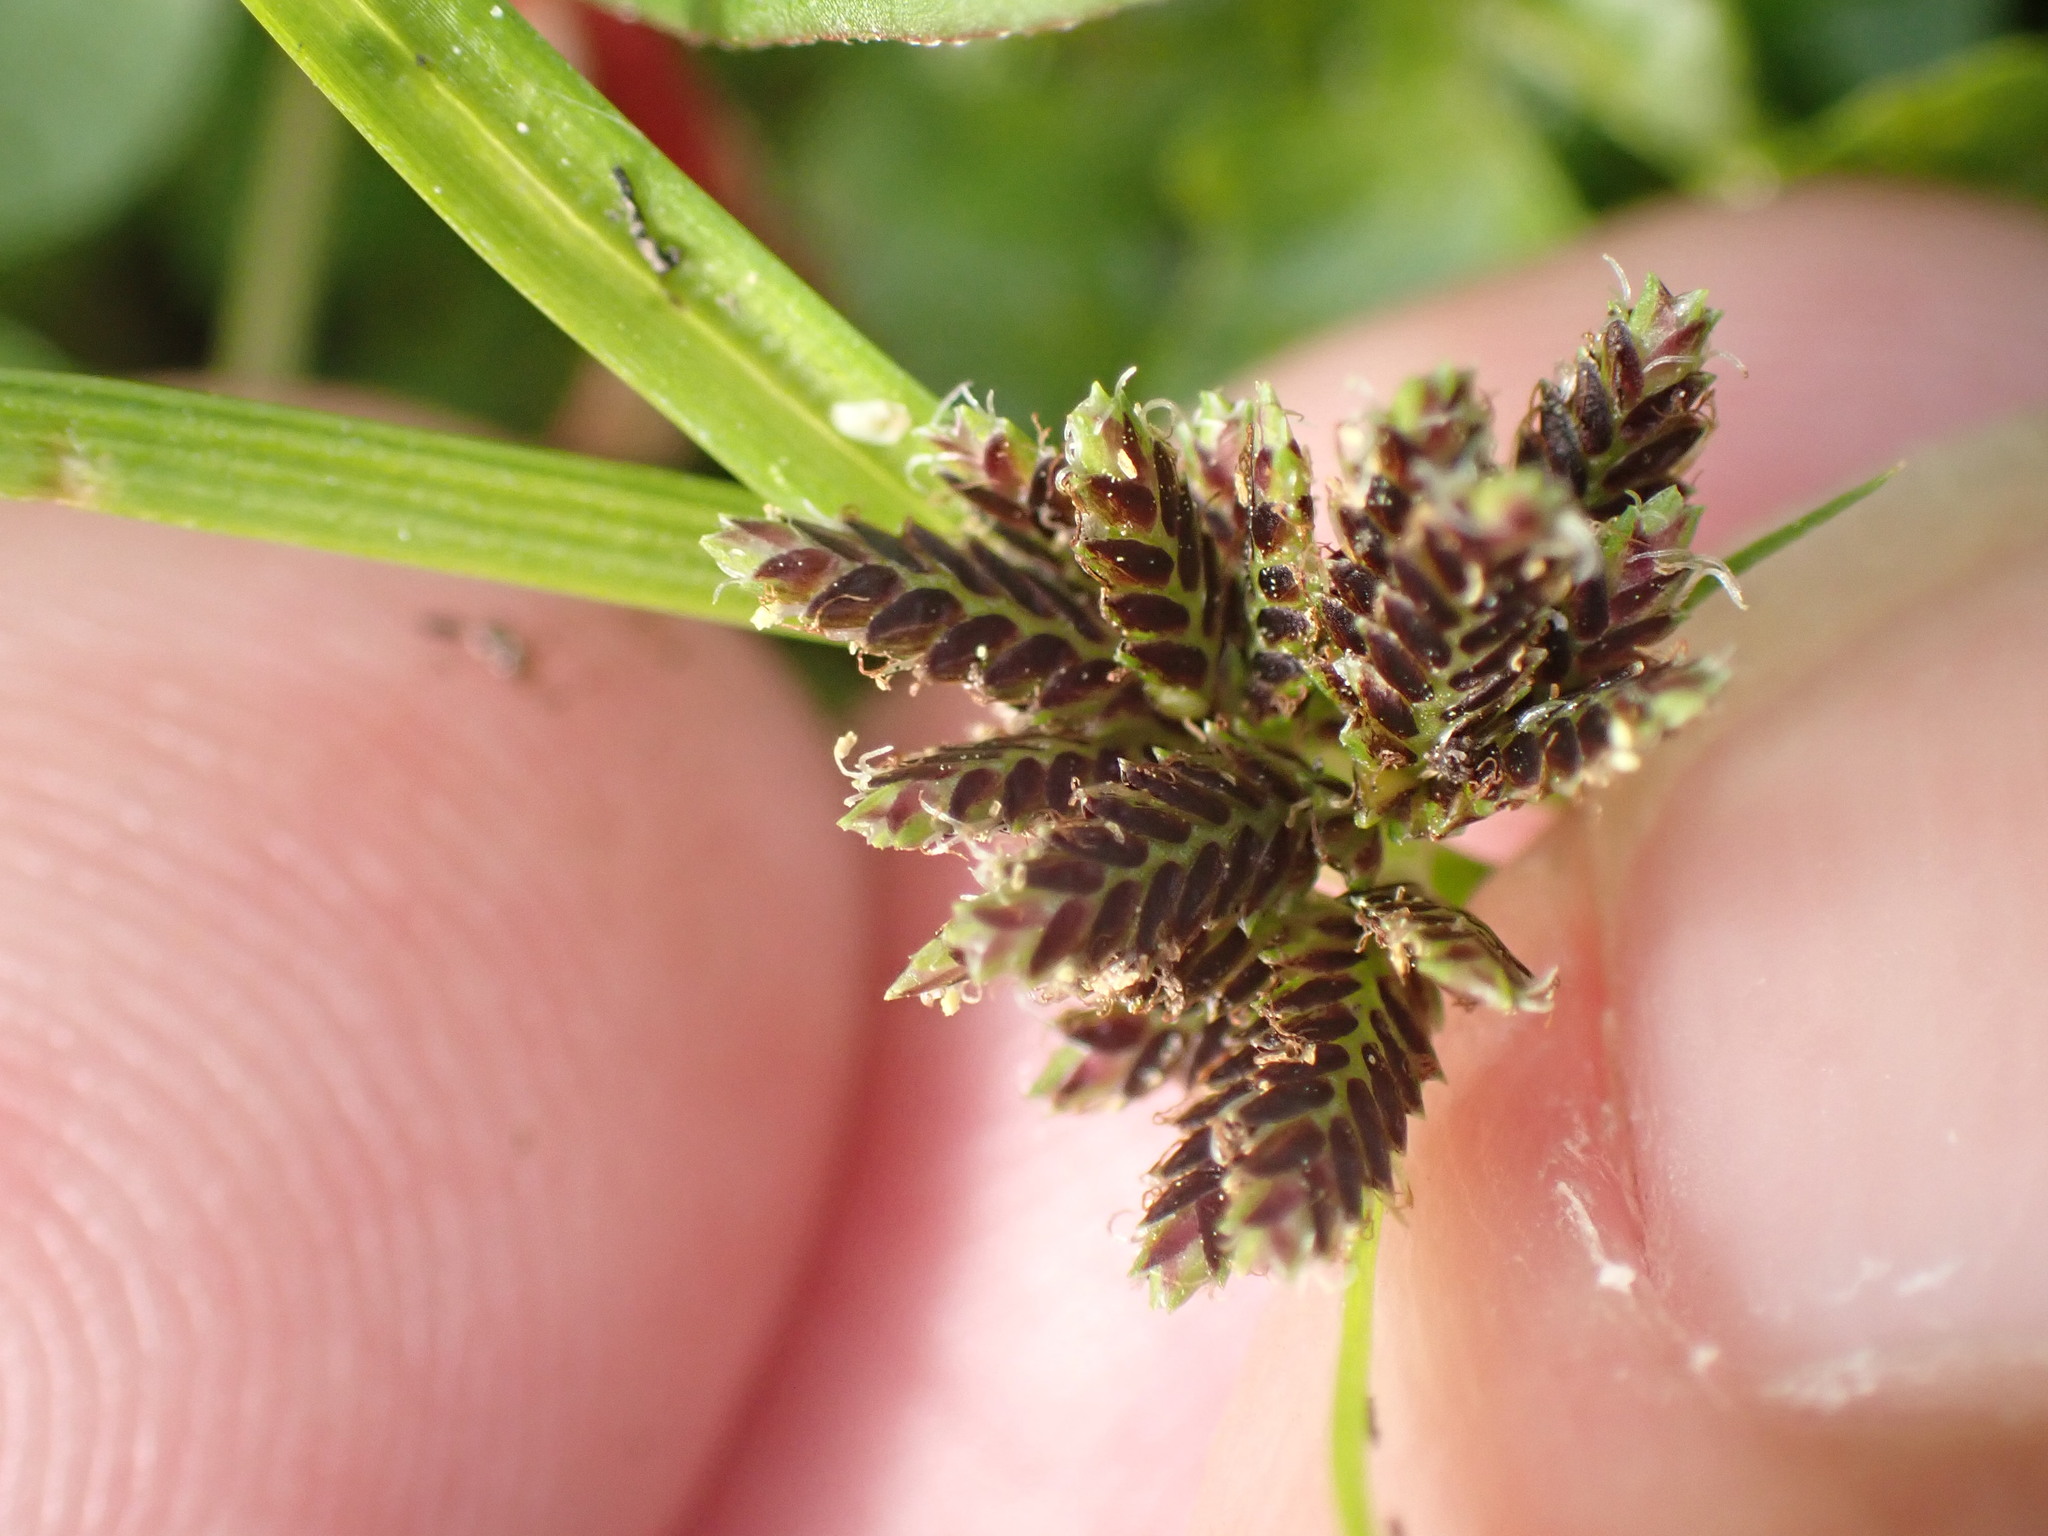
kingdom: Plantae
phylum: Tracheophyta
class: Liliopsida
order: Poales
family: Cyperaceae
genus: Cyperus
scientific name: Cyperus fuscus
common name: Brown galingale
